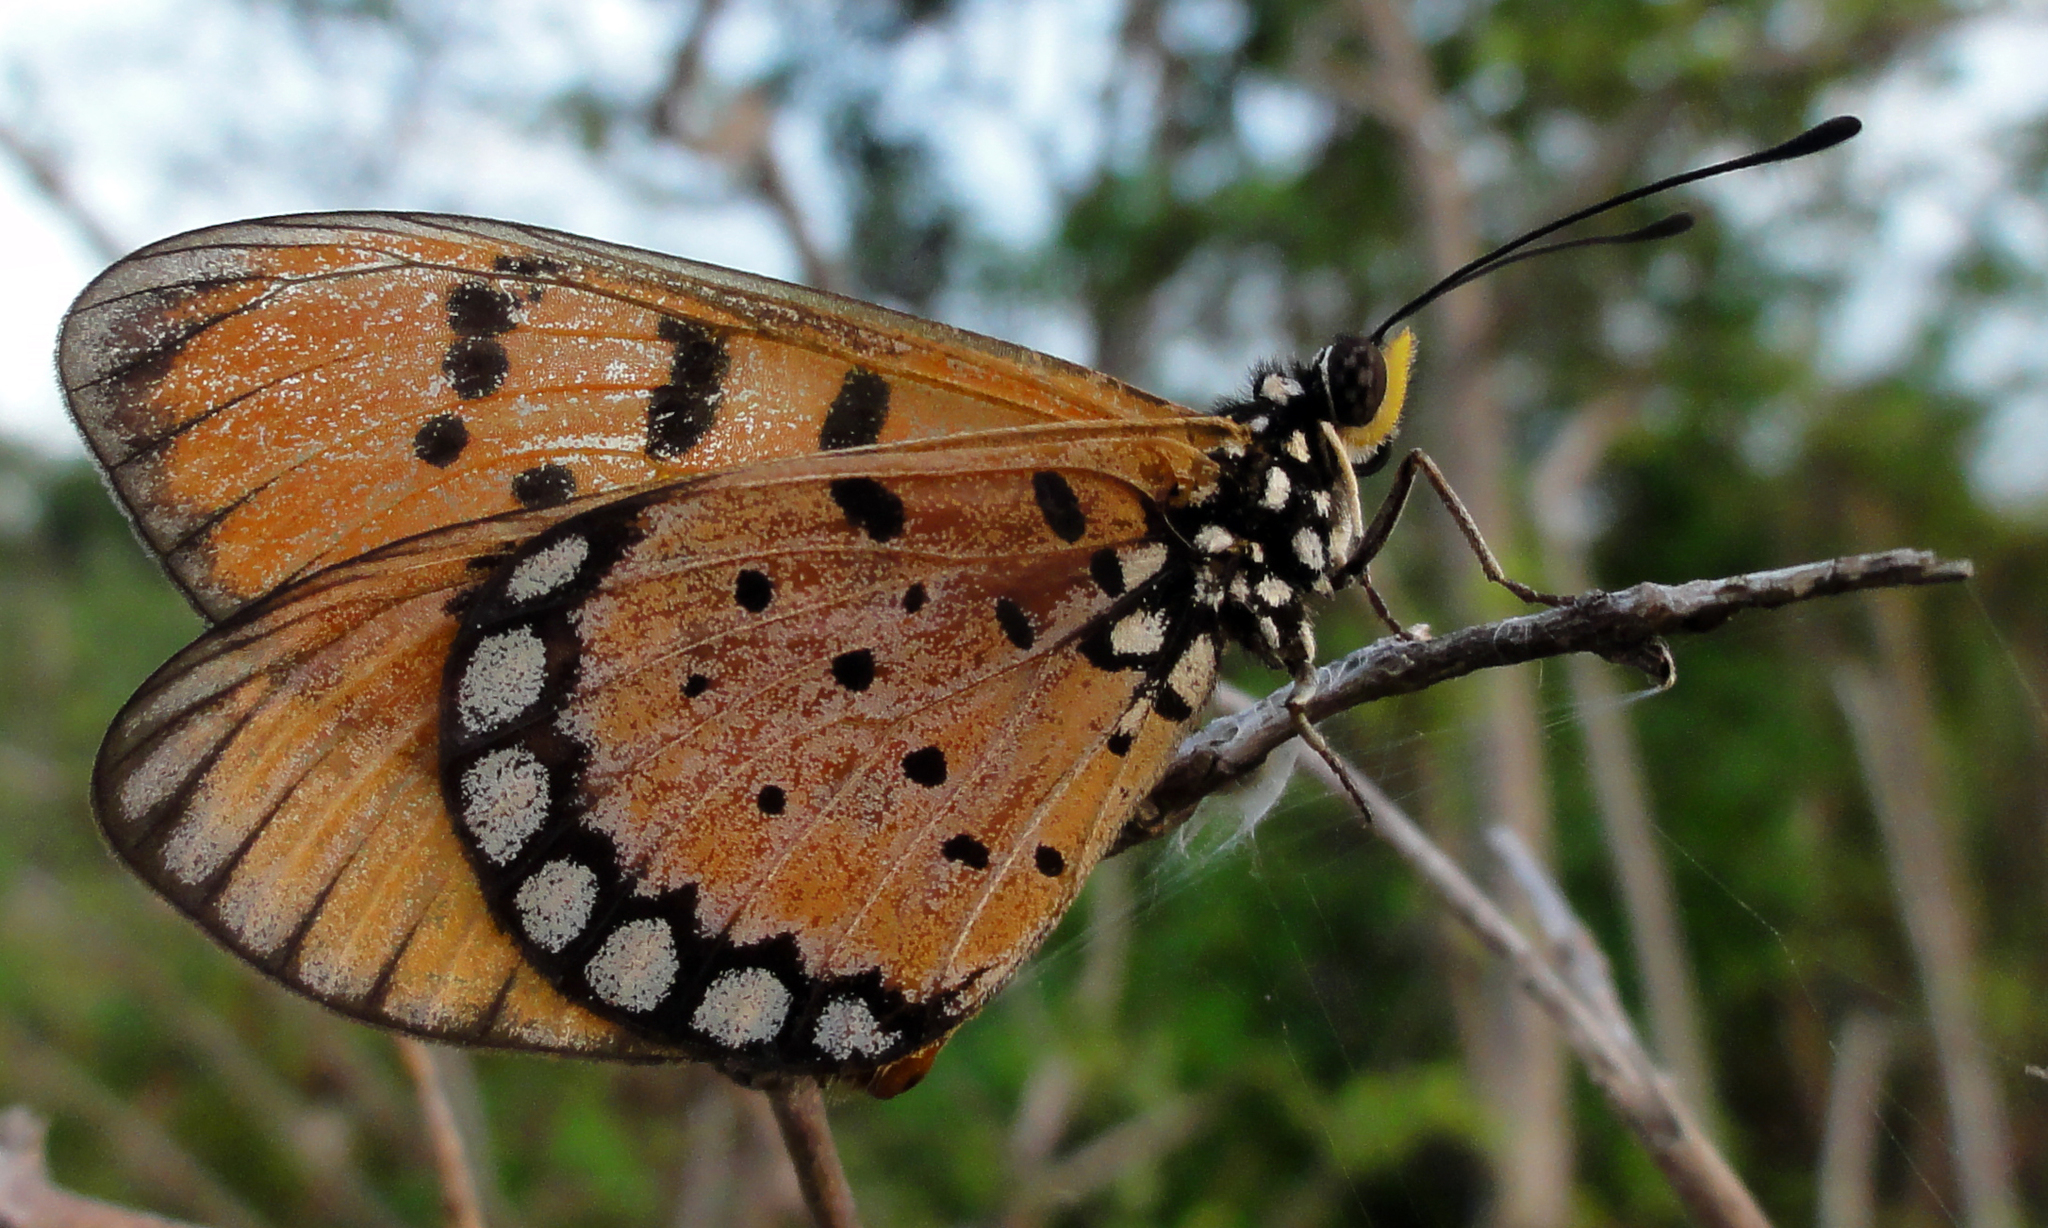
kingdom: Animalia
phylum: Arthropoda
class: Insecta
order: Lepidoptera
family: Nymphalidae
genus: Acraea
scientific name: Acraea terpsicore
